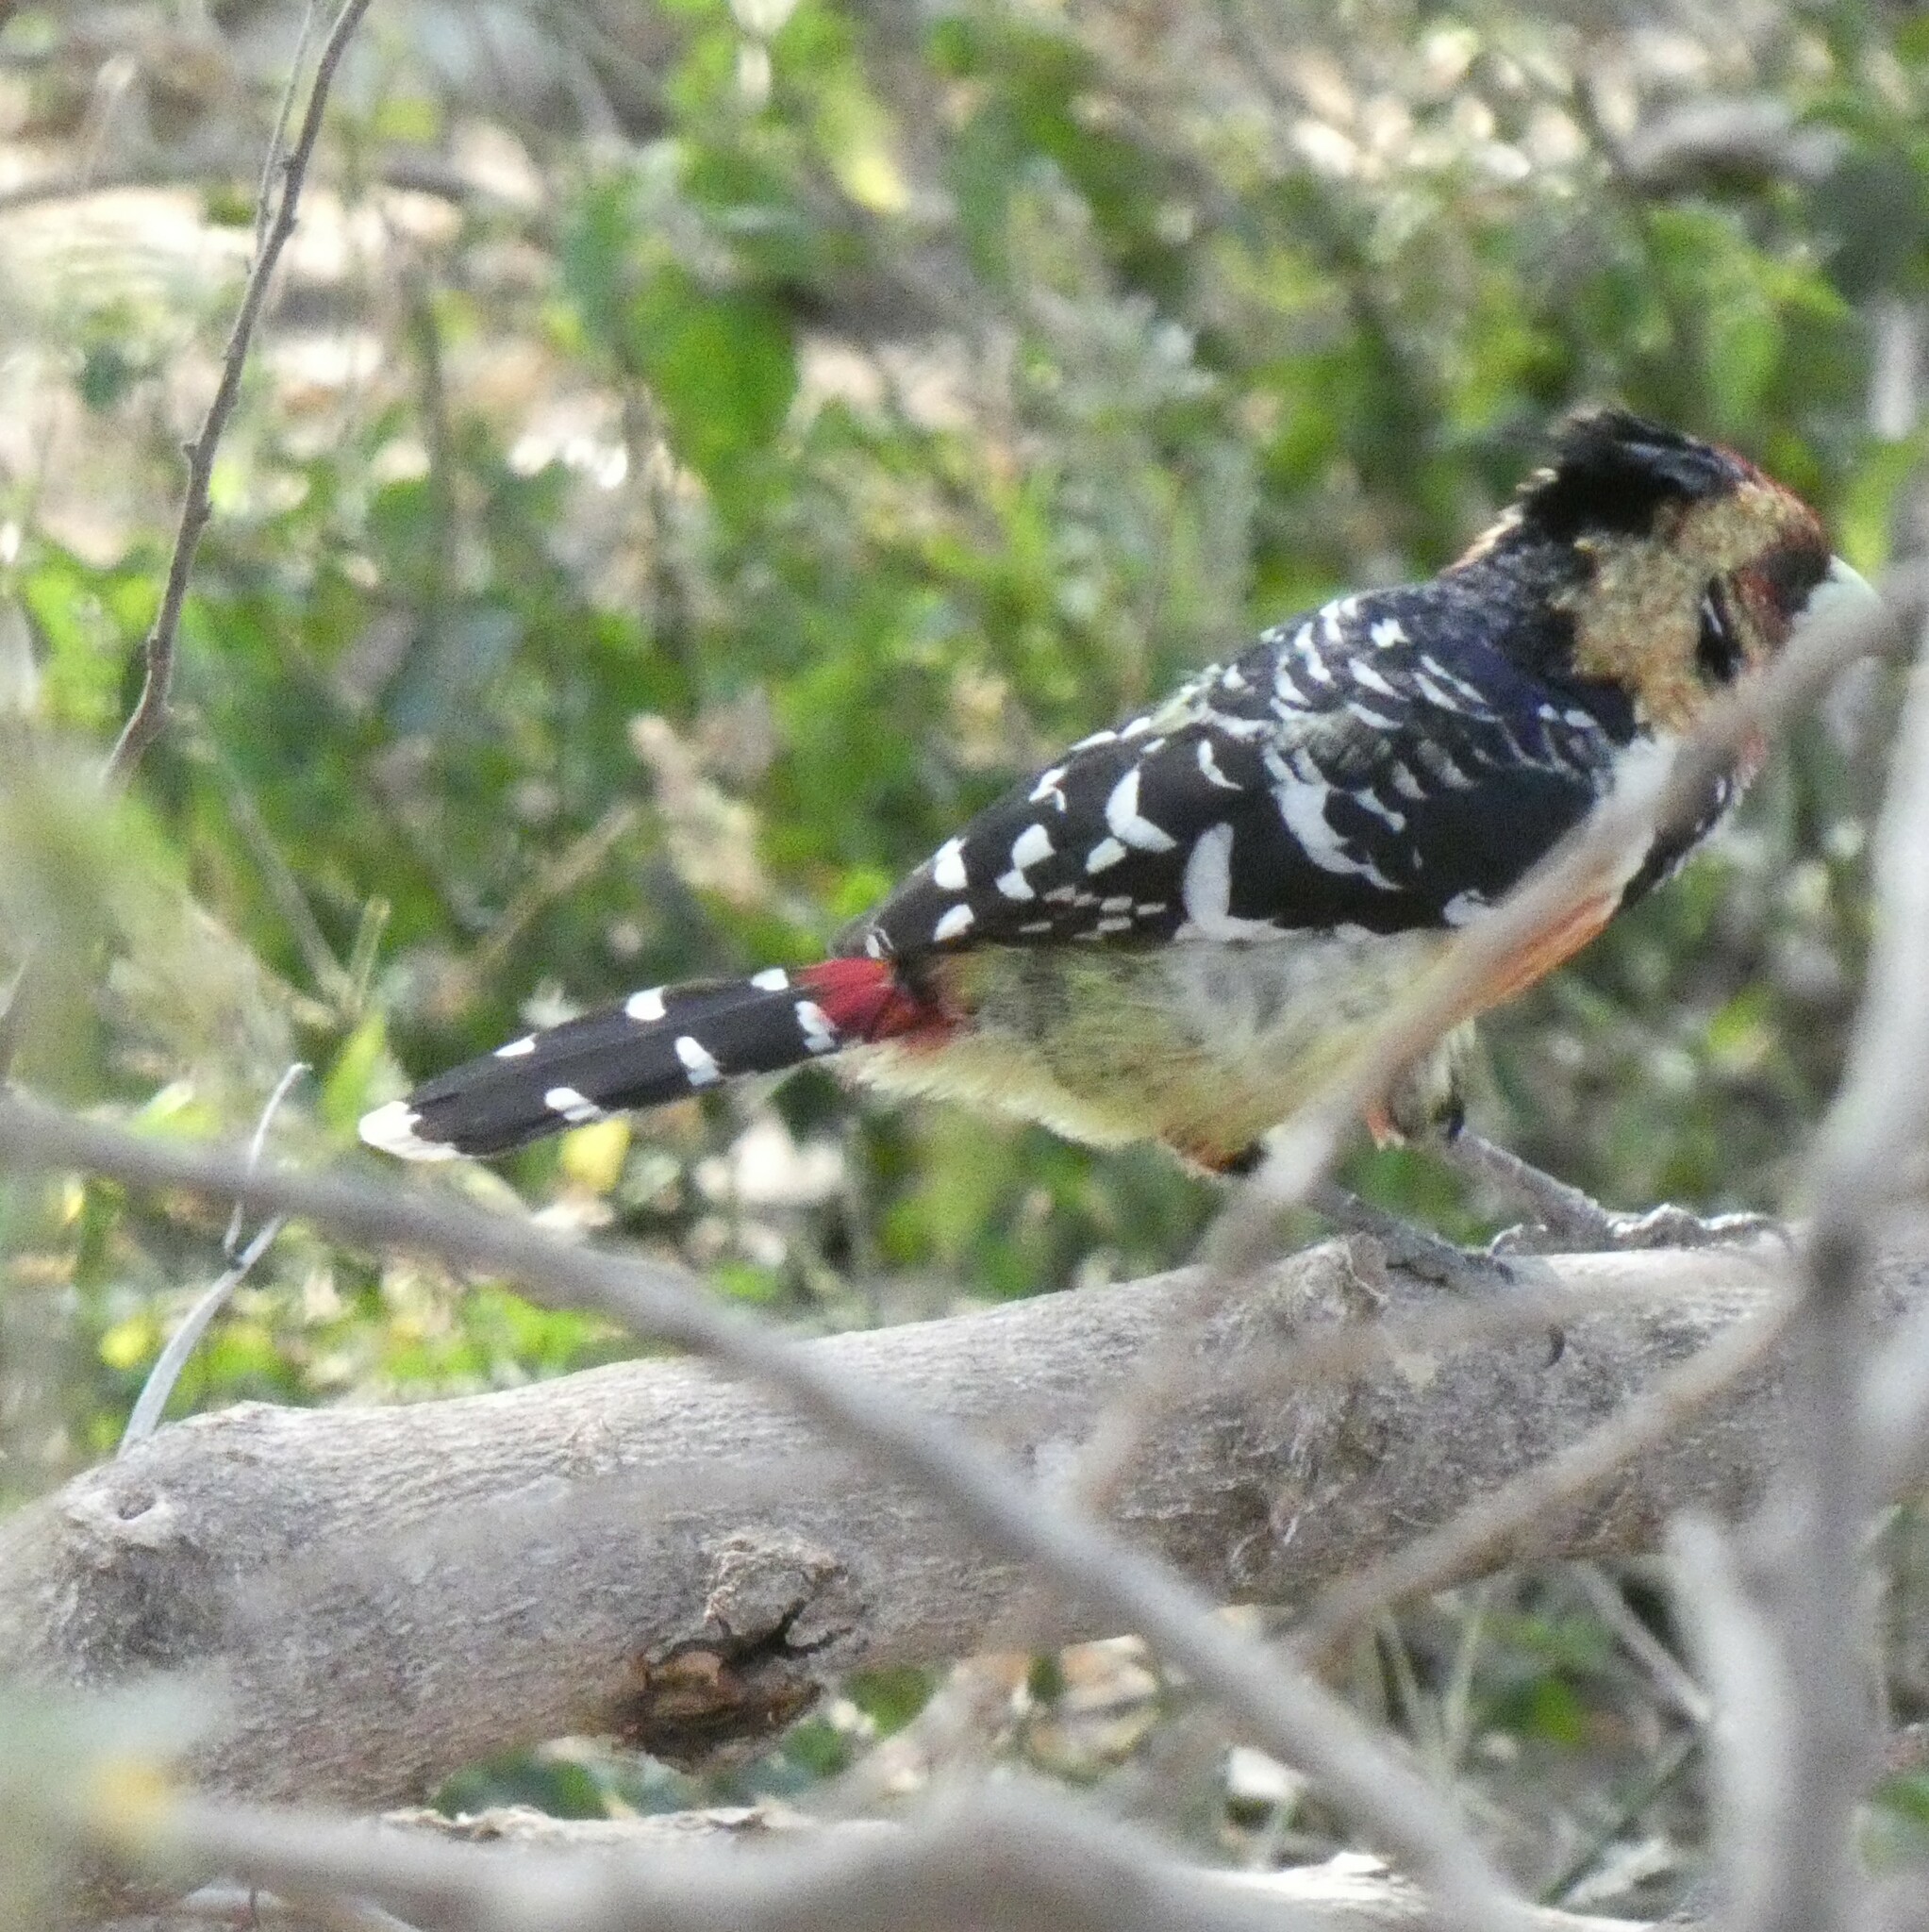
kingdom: Animalia
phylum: Chordata
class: Aves
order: Piciformes
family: Lybiidae
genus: Trachyphonus
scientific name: Trachyphonus vaillantii
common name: Crested barbet
